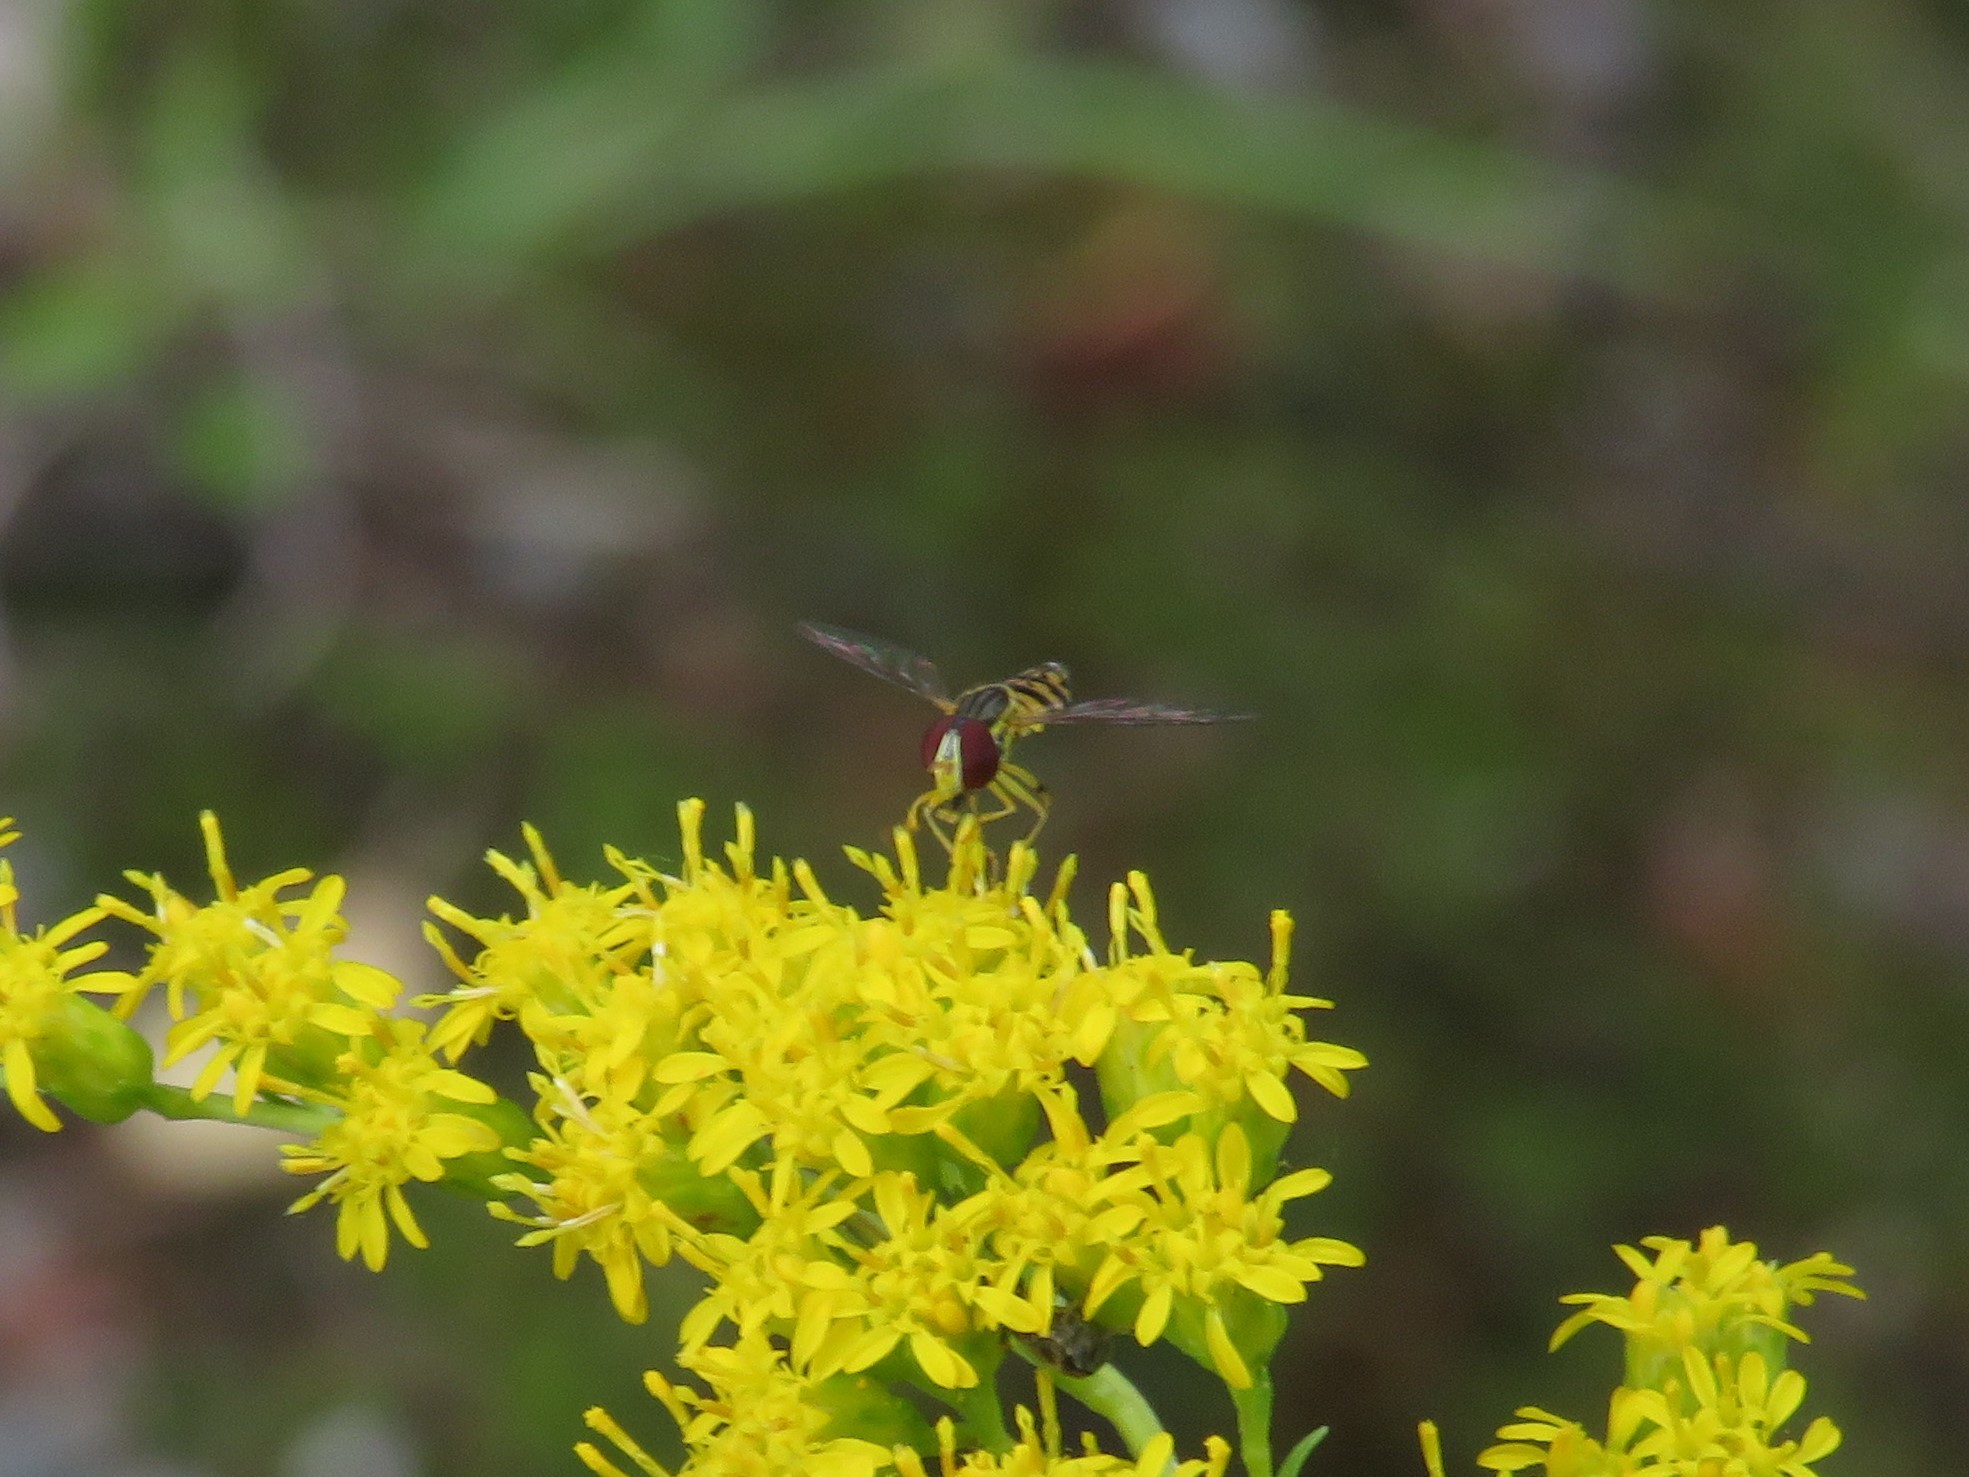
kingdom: Animalia
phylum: Arthropoda
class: Insecta
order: Diptera
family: Syrphidae
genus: Toxomerus
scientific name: Toxomerus geminatus
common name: Eastern calligrapher
